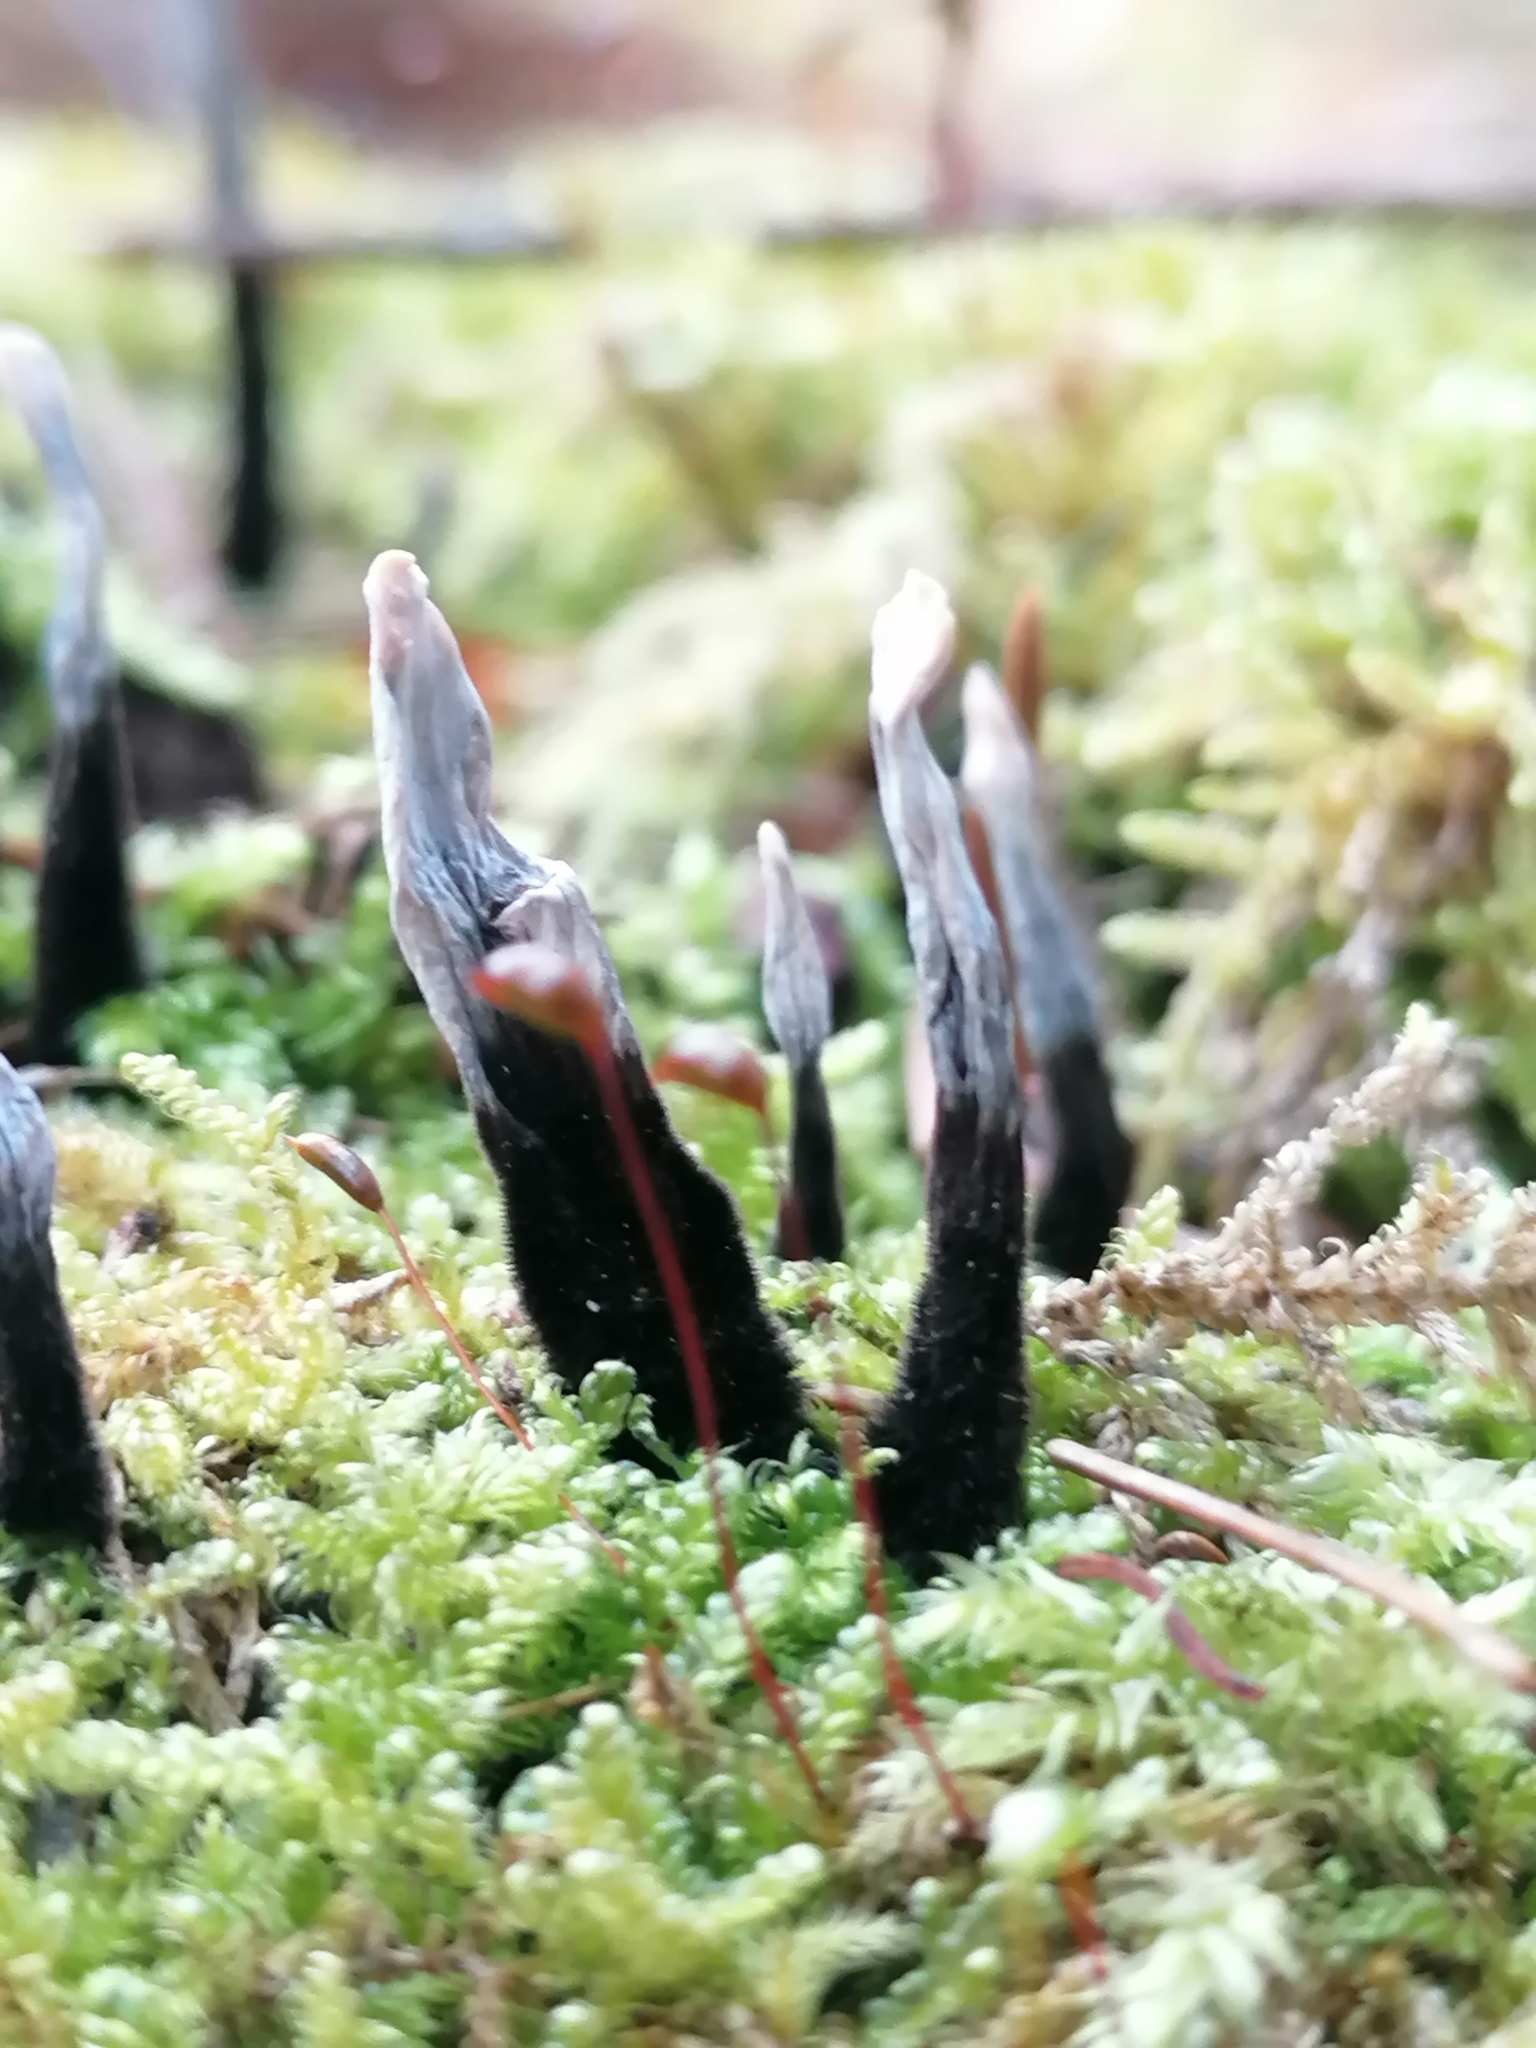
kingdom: Fungi
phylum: Ascomycota
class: Sordariomycetes
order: Xylariales
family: Xylariaceae
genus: Xylaria
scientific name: Xylaria hypoxylon
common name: Candle-snuff fungus
